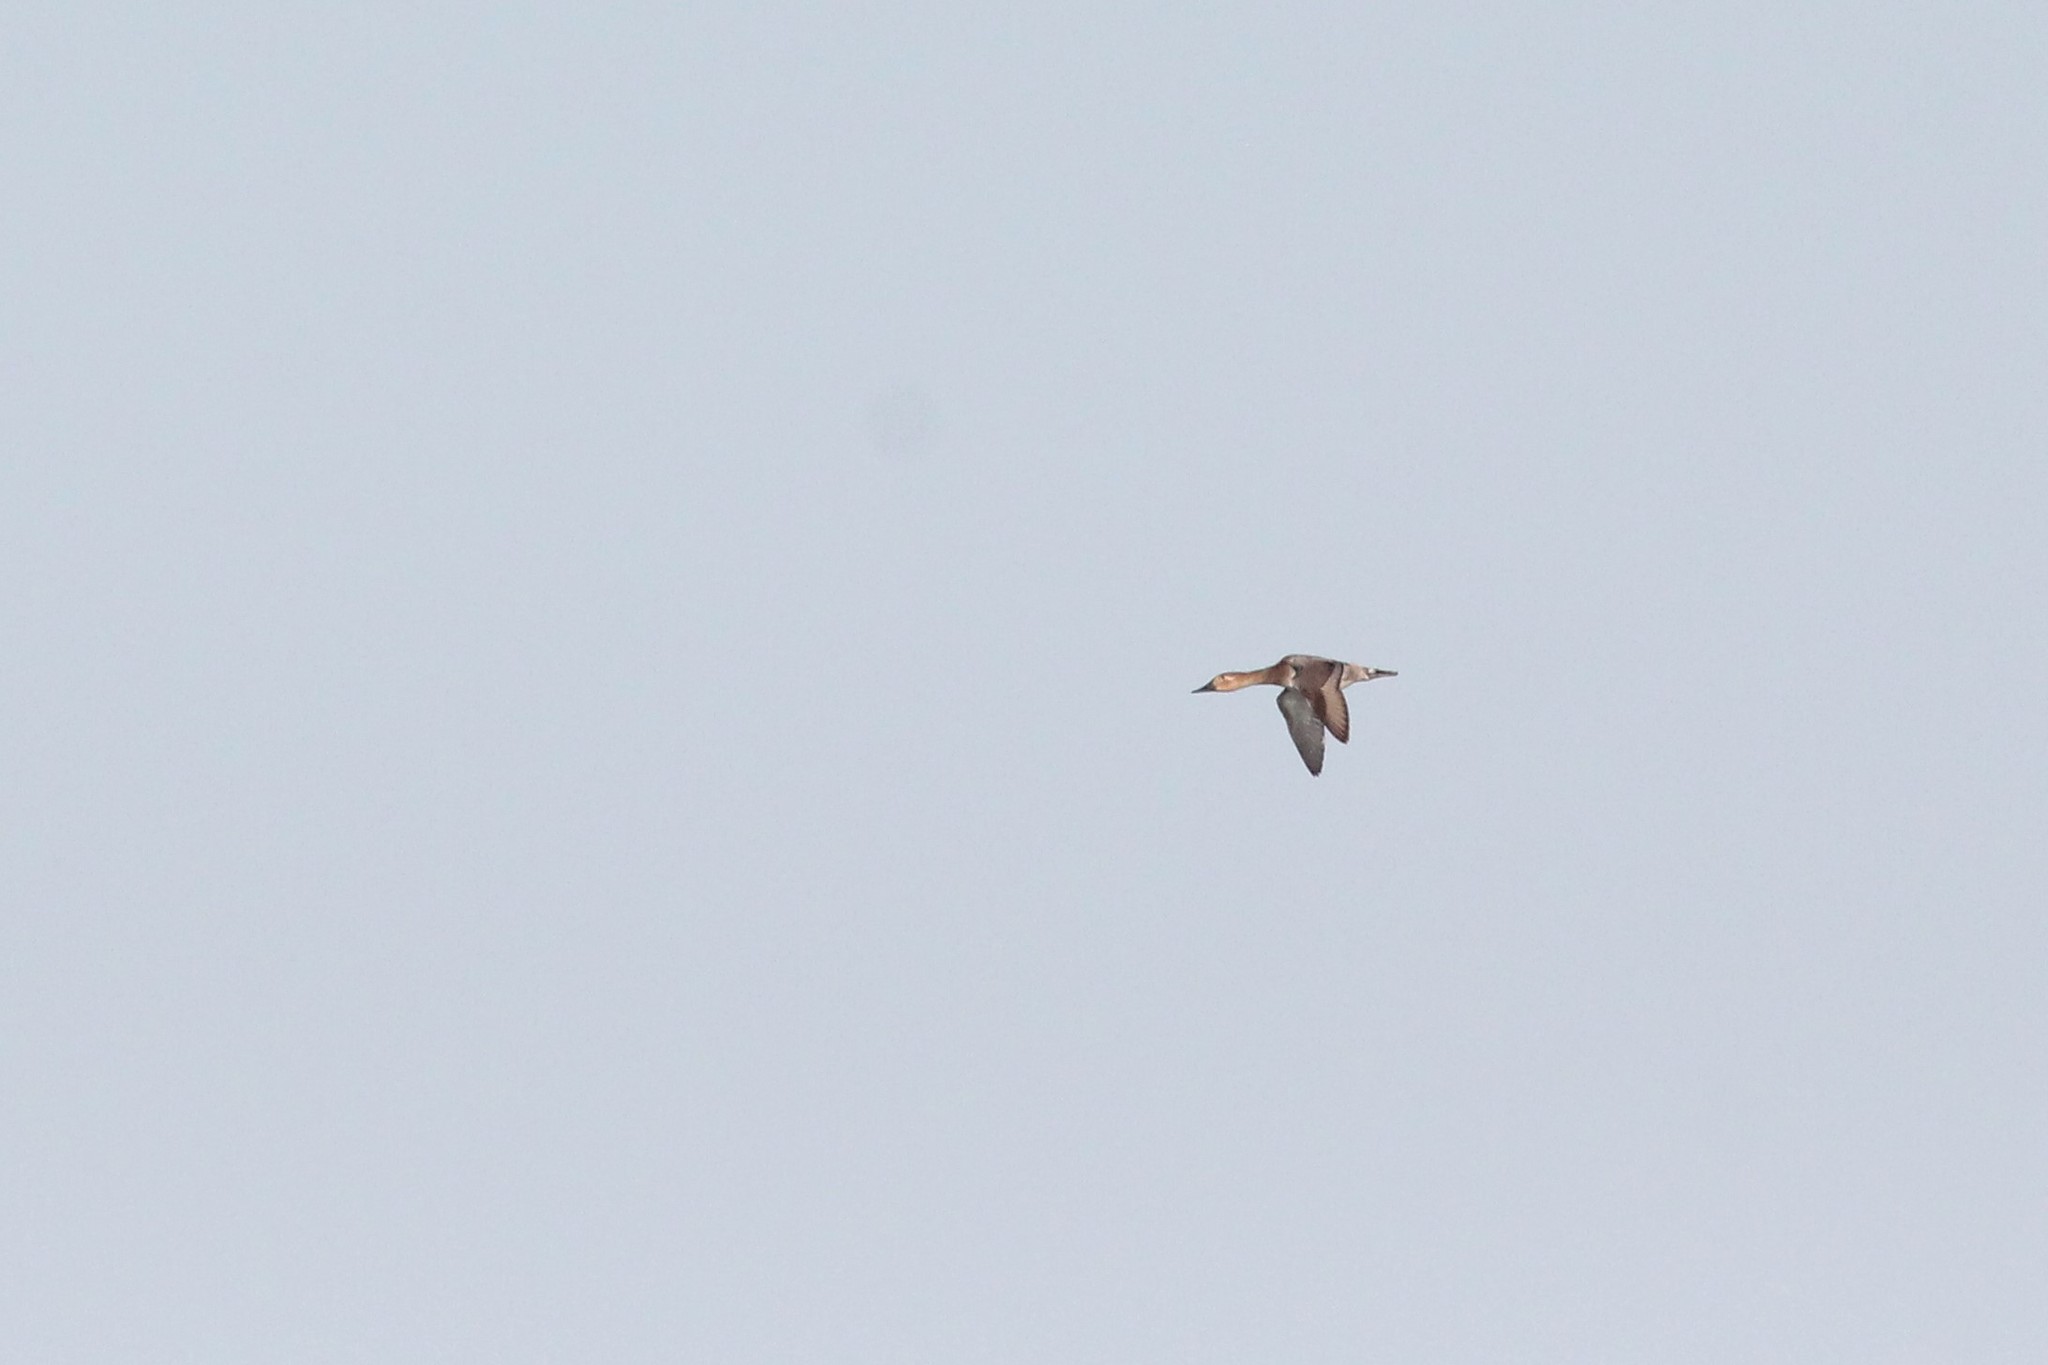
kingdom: Animalia
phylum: Chordata
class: Aves
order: Anseriformes
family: Anatidae
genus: Aythya
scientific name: Aythya valisineria
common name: Canvasback
